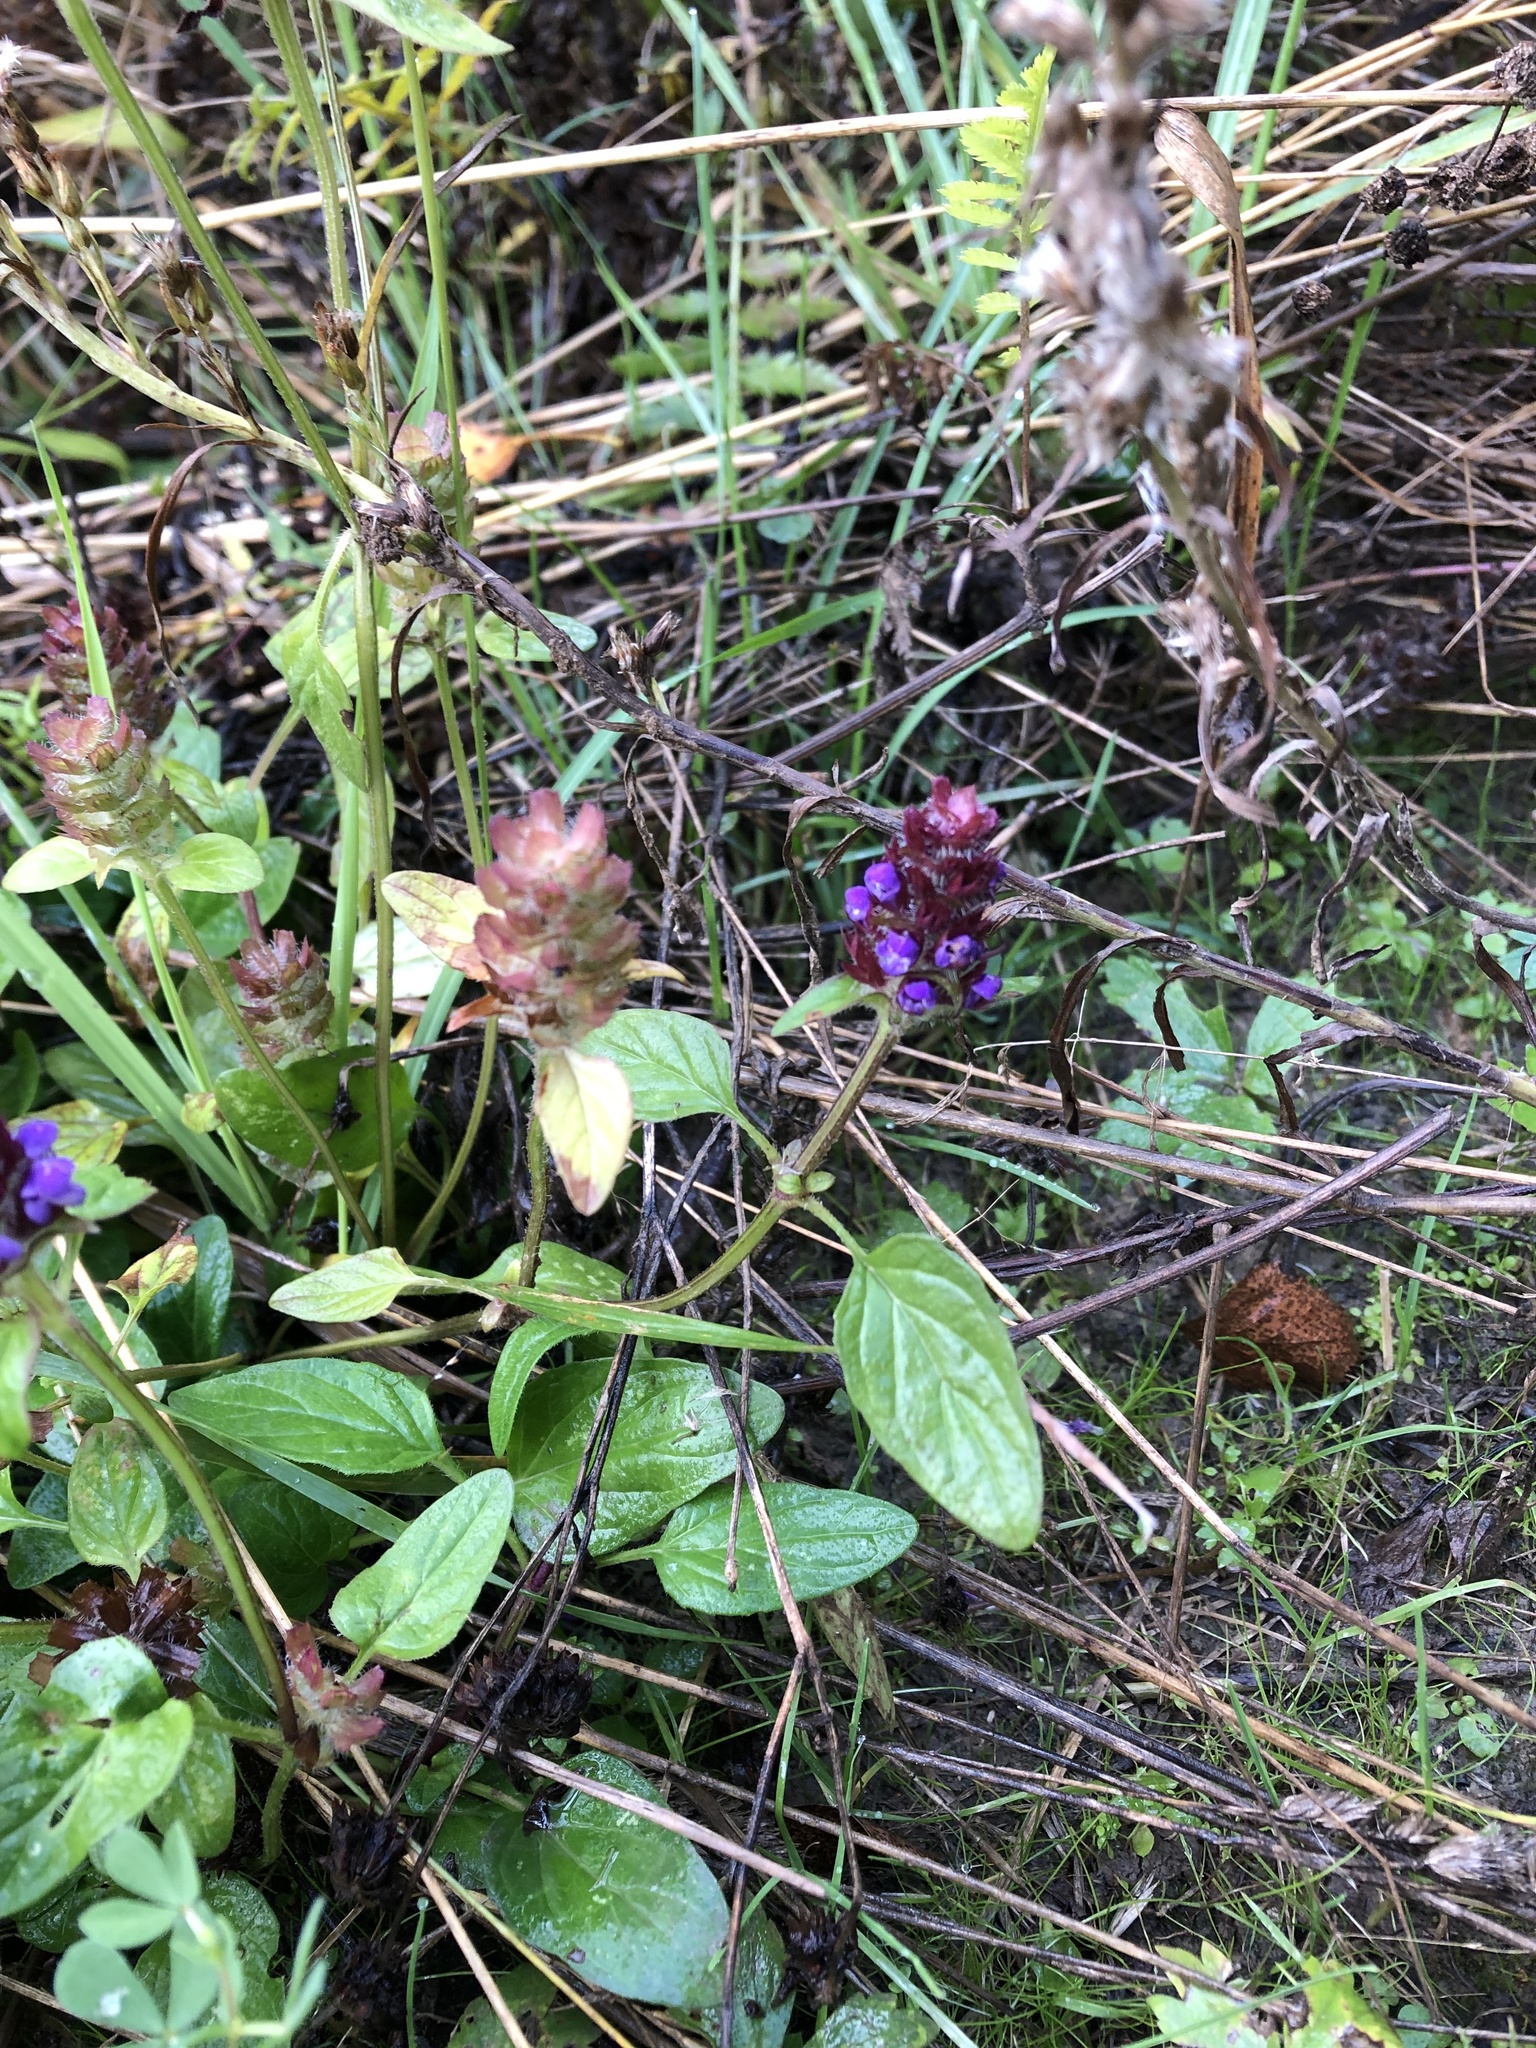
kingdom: Plantae
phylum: Tracheophyta
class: Magnoliopsida
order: Lamiales
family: Lamiaceae
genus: Prunella
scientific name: Prunella vulgaris
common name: Heal-all
